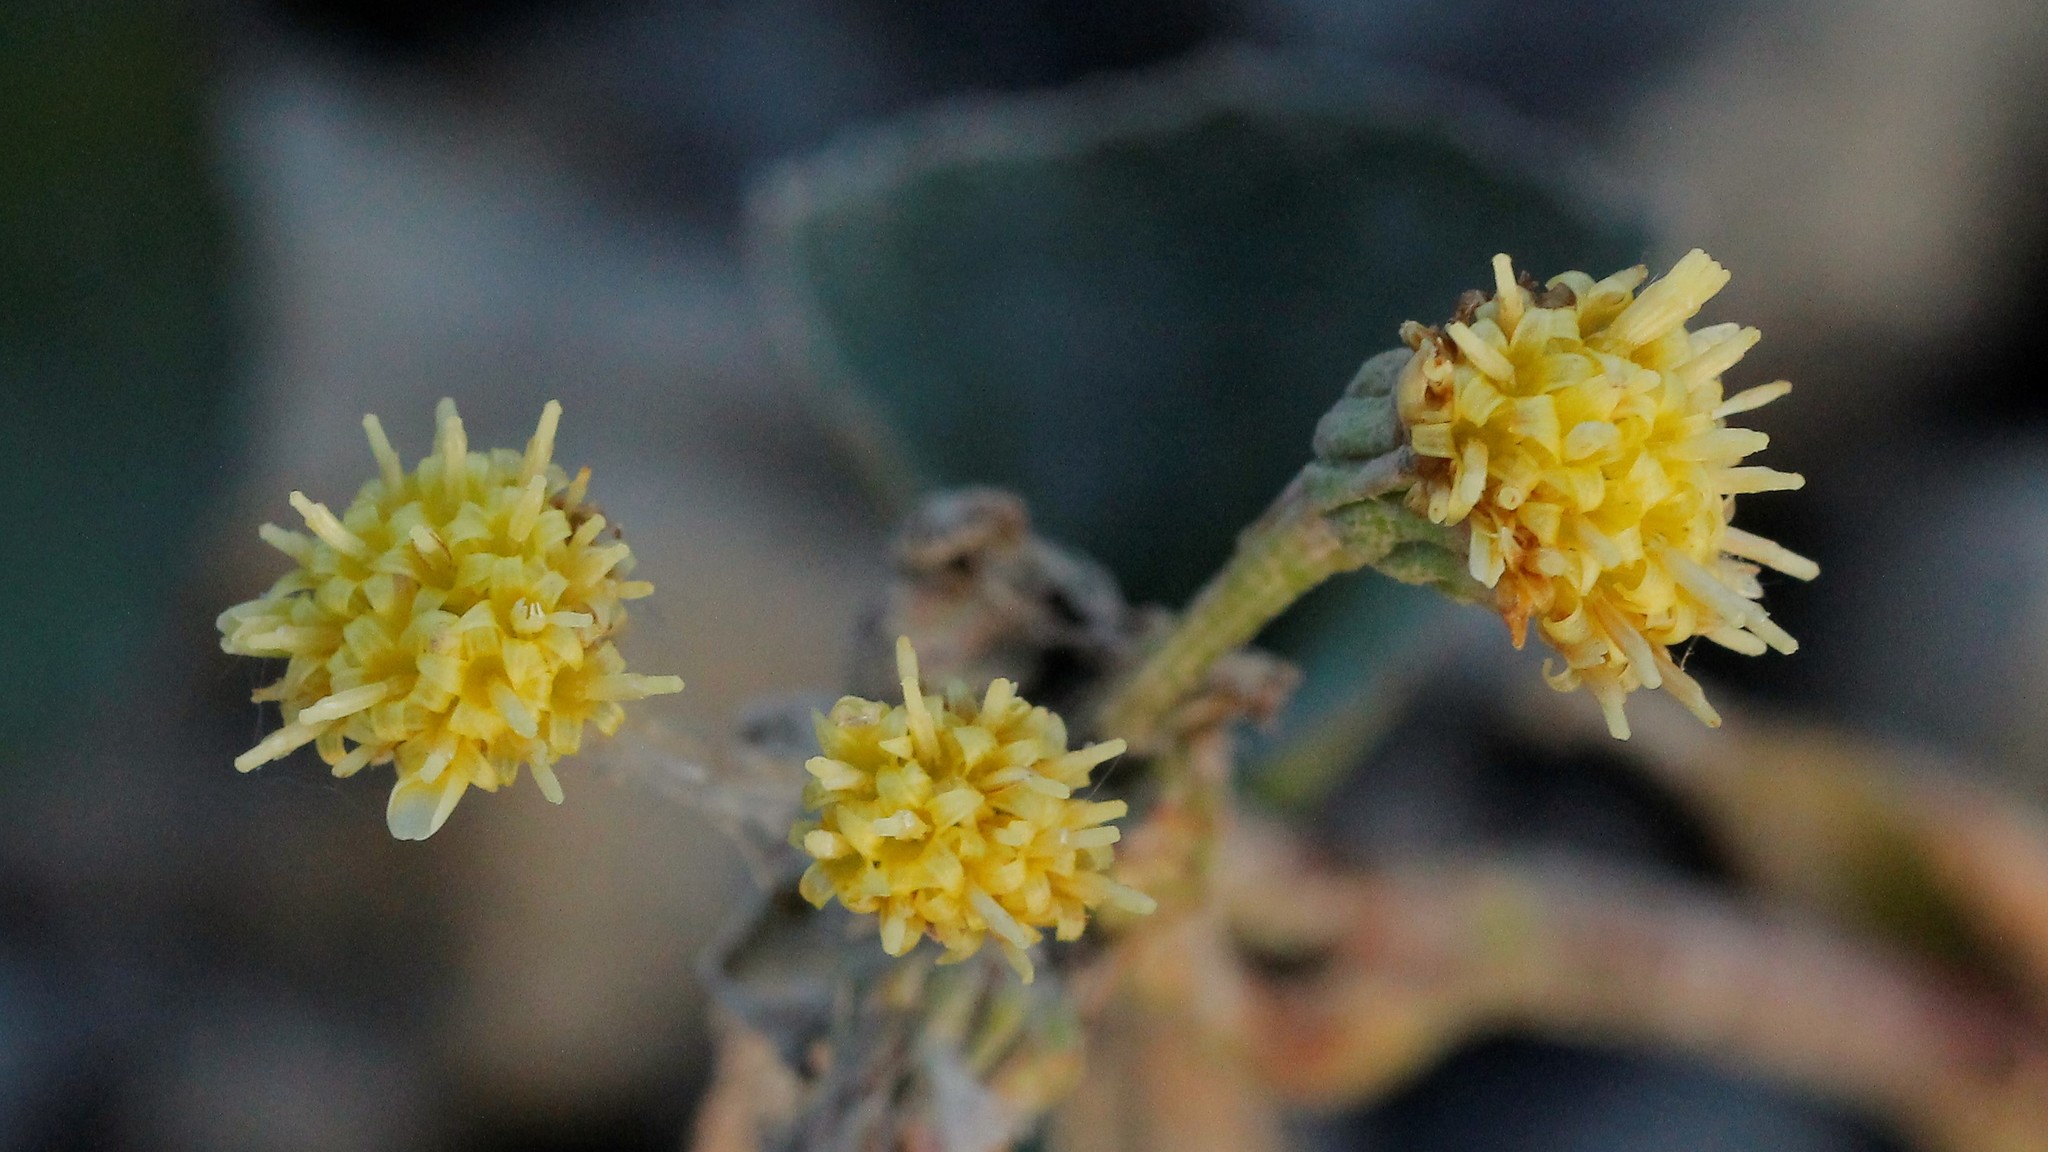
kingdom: Plantae
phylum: Tracheophyta
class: Magnoliopsida
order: Asterales
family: Asteraceae
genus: Petasites
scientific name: Petasites radiatus
